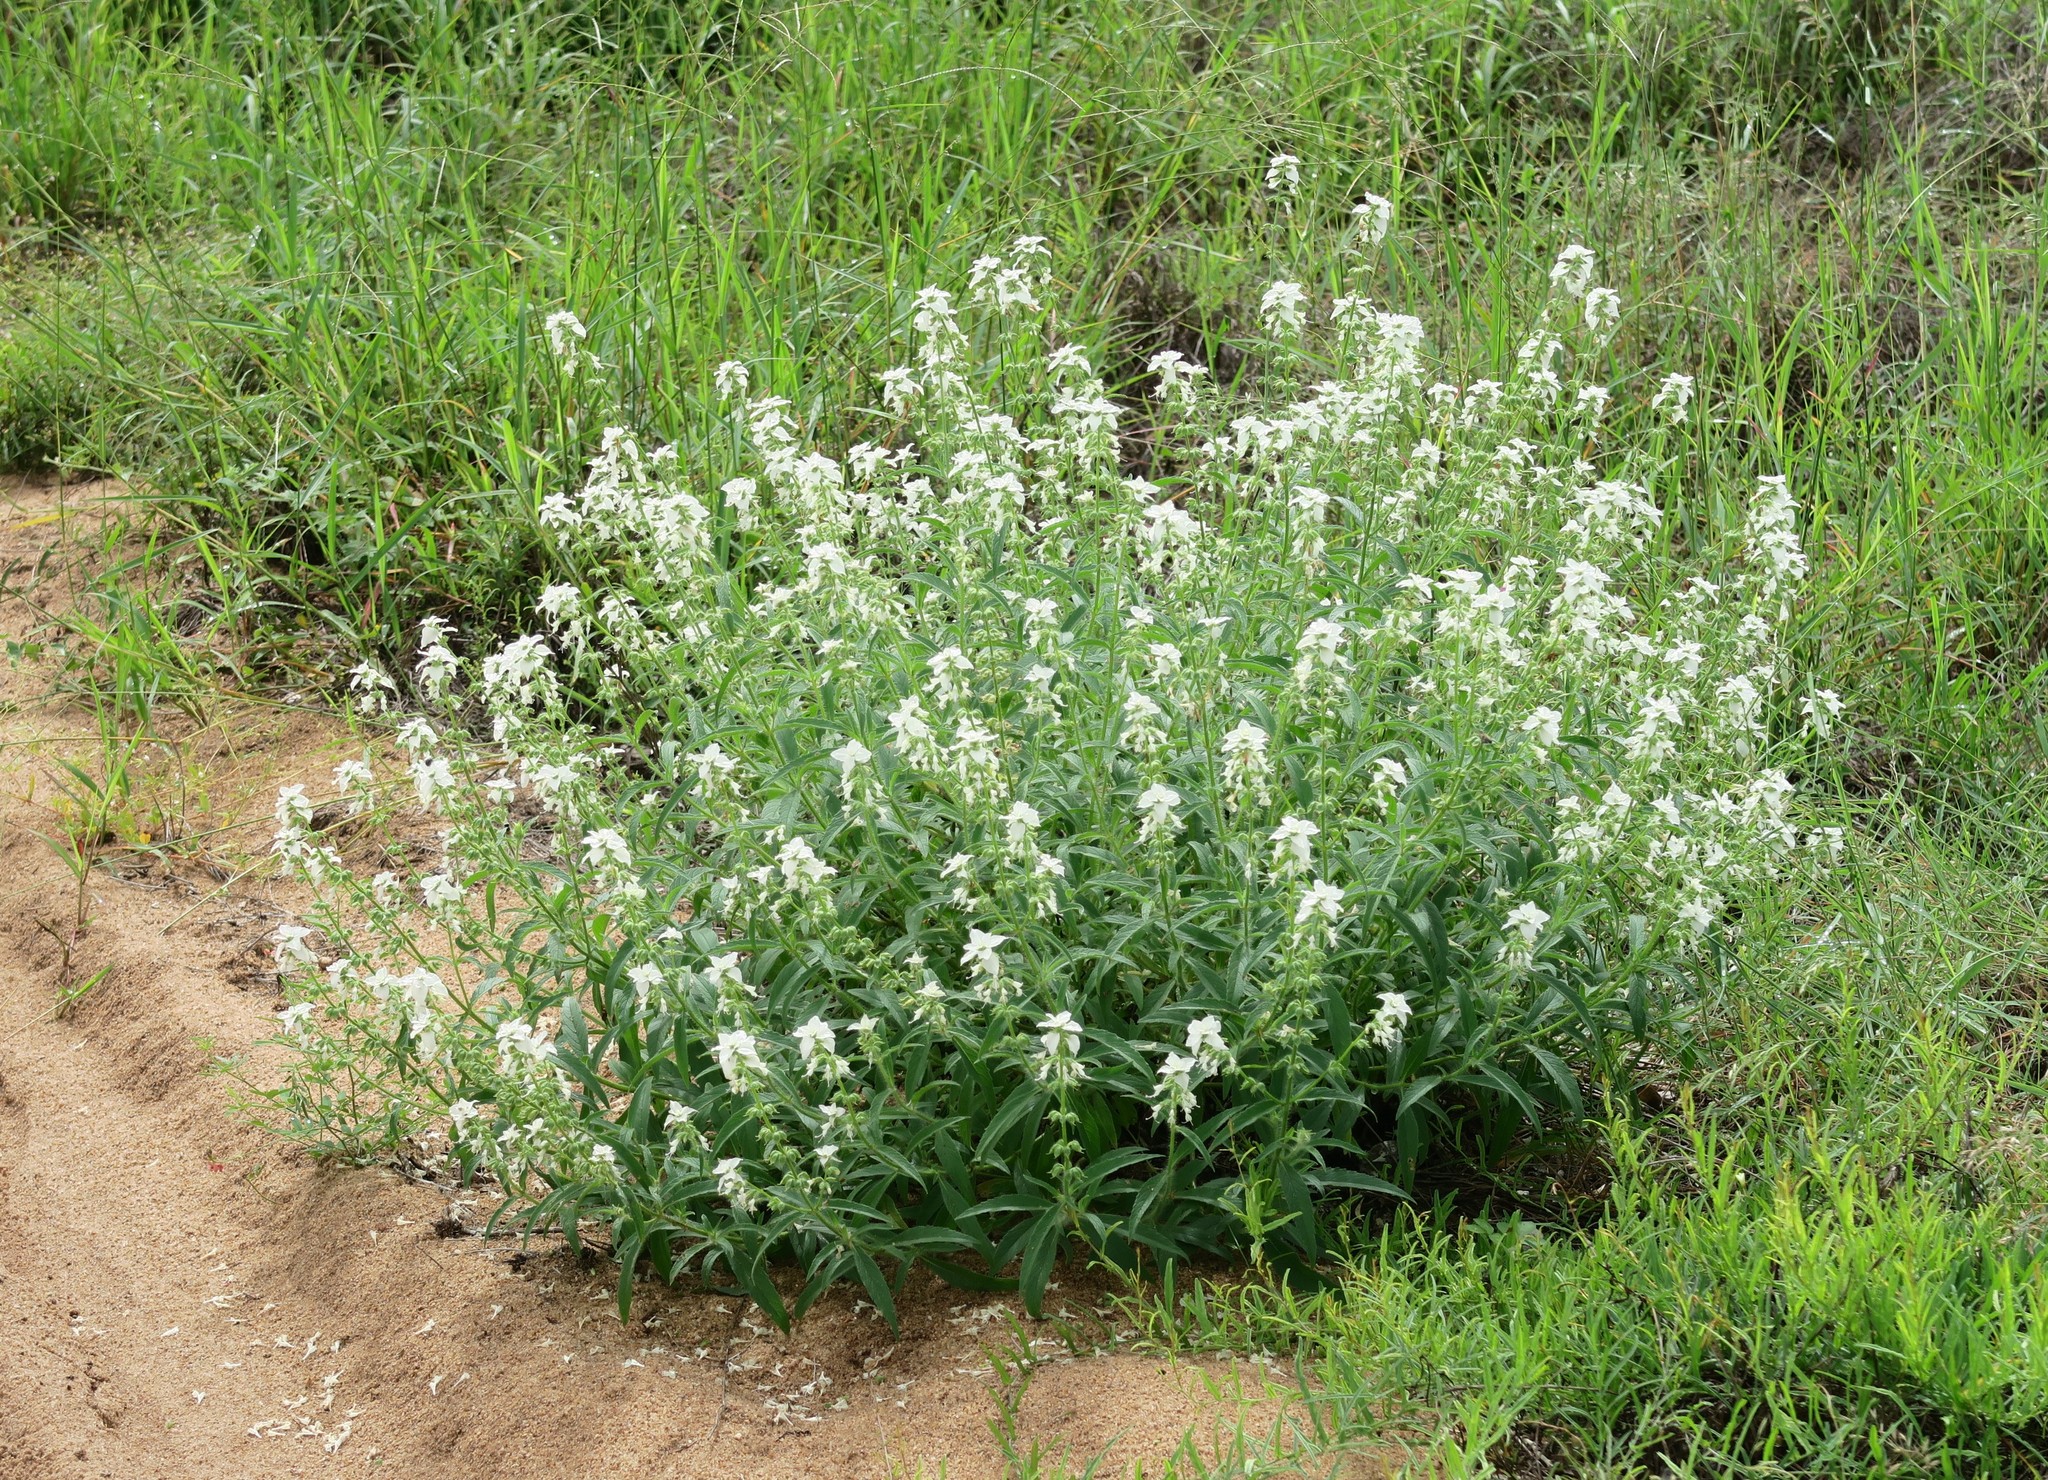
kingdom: Plantae
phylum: Tracheophyta
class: Magnoliopsida
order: Lamiales
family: Lamiaceae
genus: Syncolostemon
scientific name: Syncolostemon bracteosus
